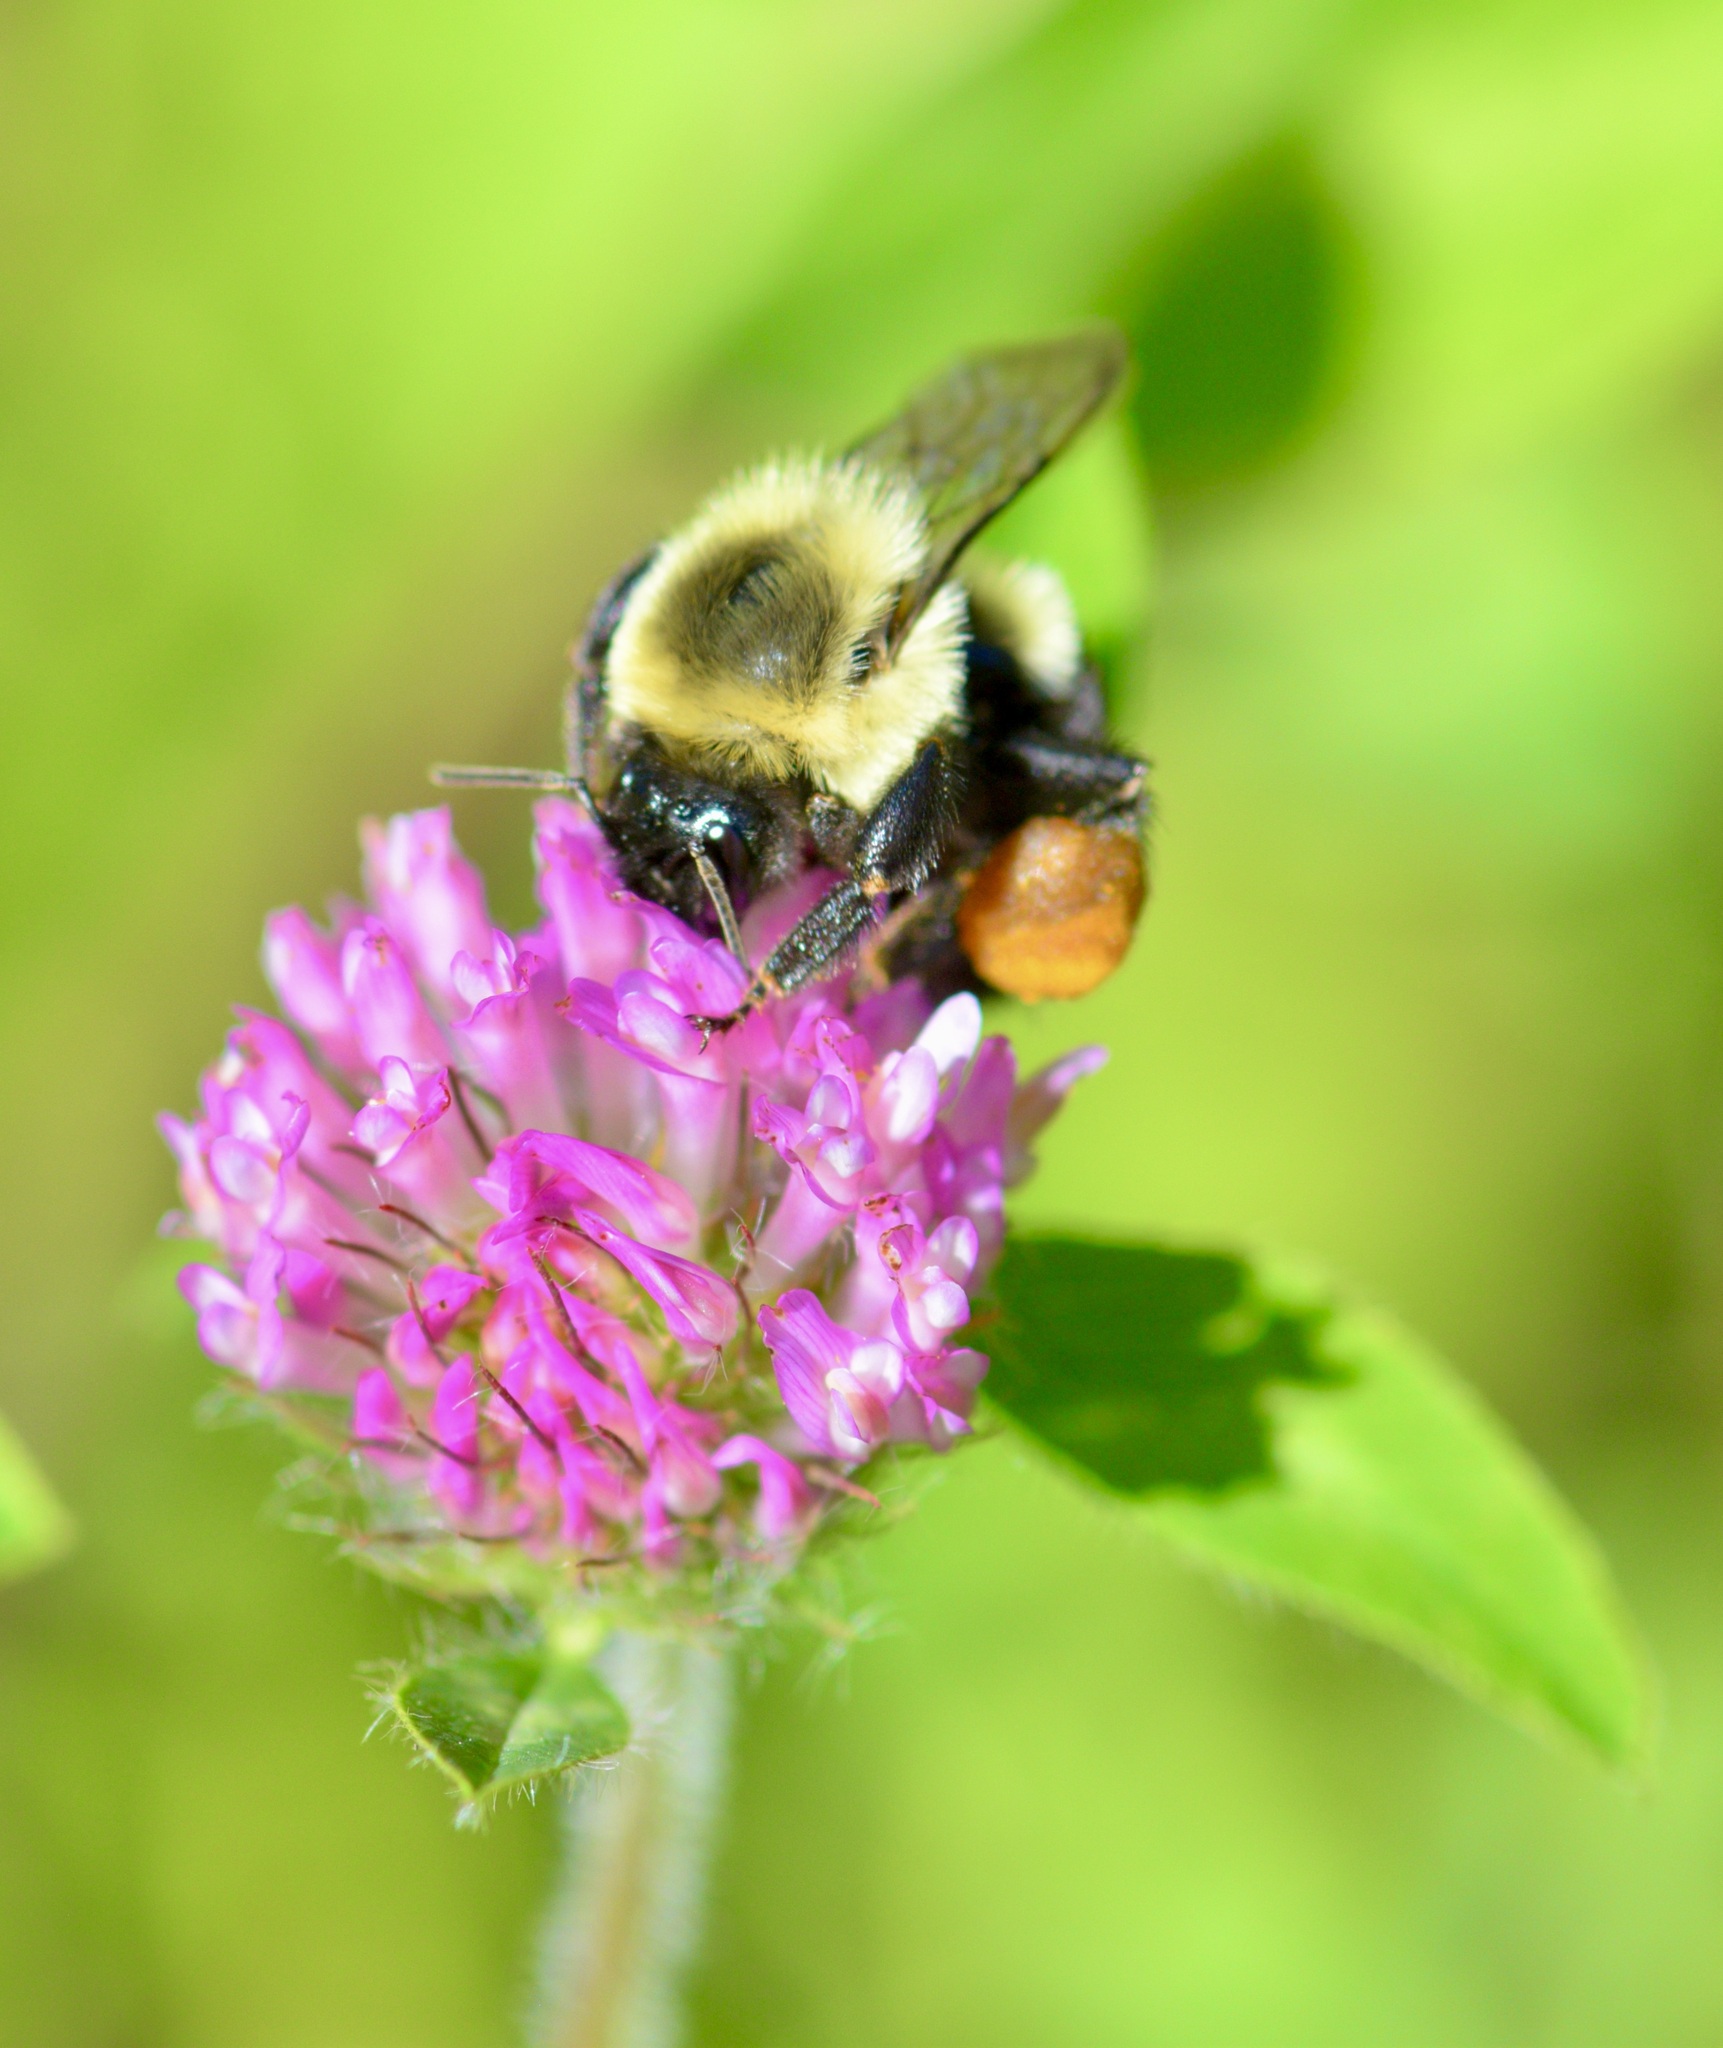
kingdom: Animalia
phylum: Arthropoda
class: Insecta
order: Hymenoptera
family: Apidae
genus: Bombus
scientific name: Bombus impatiens
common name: Common eastern bumble bee
